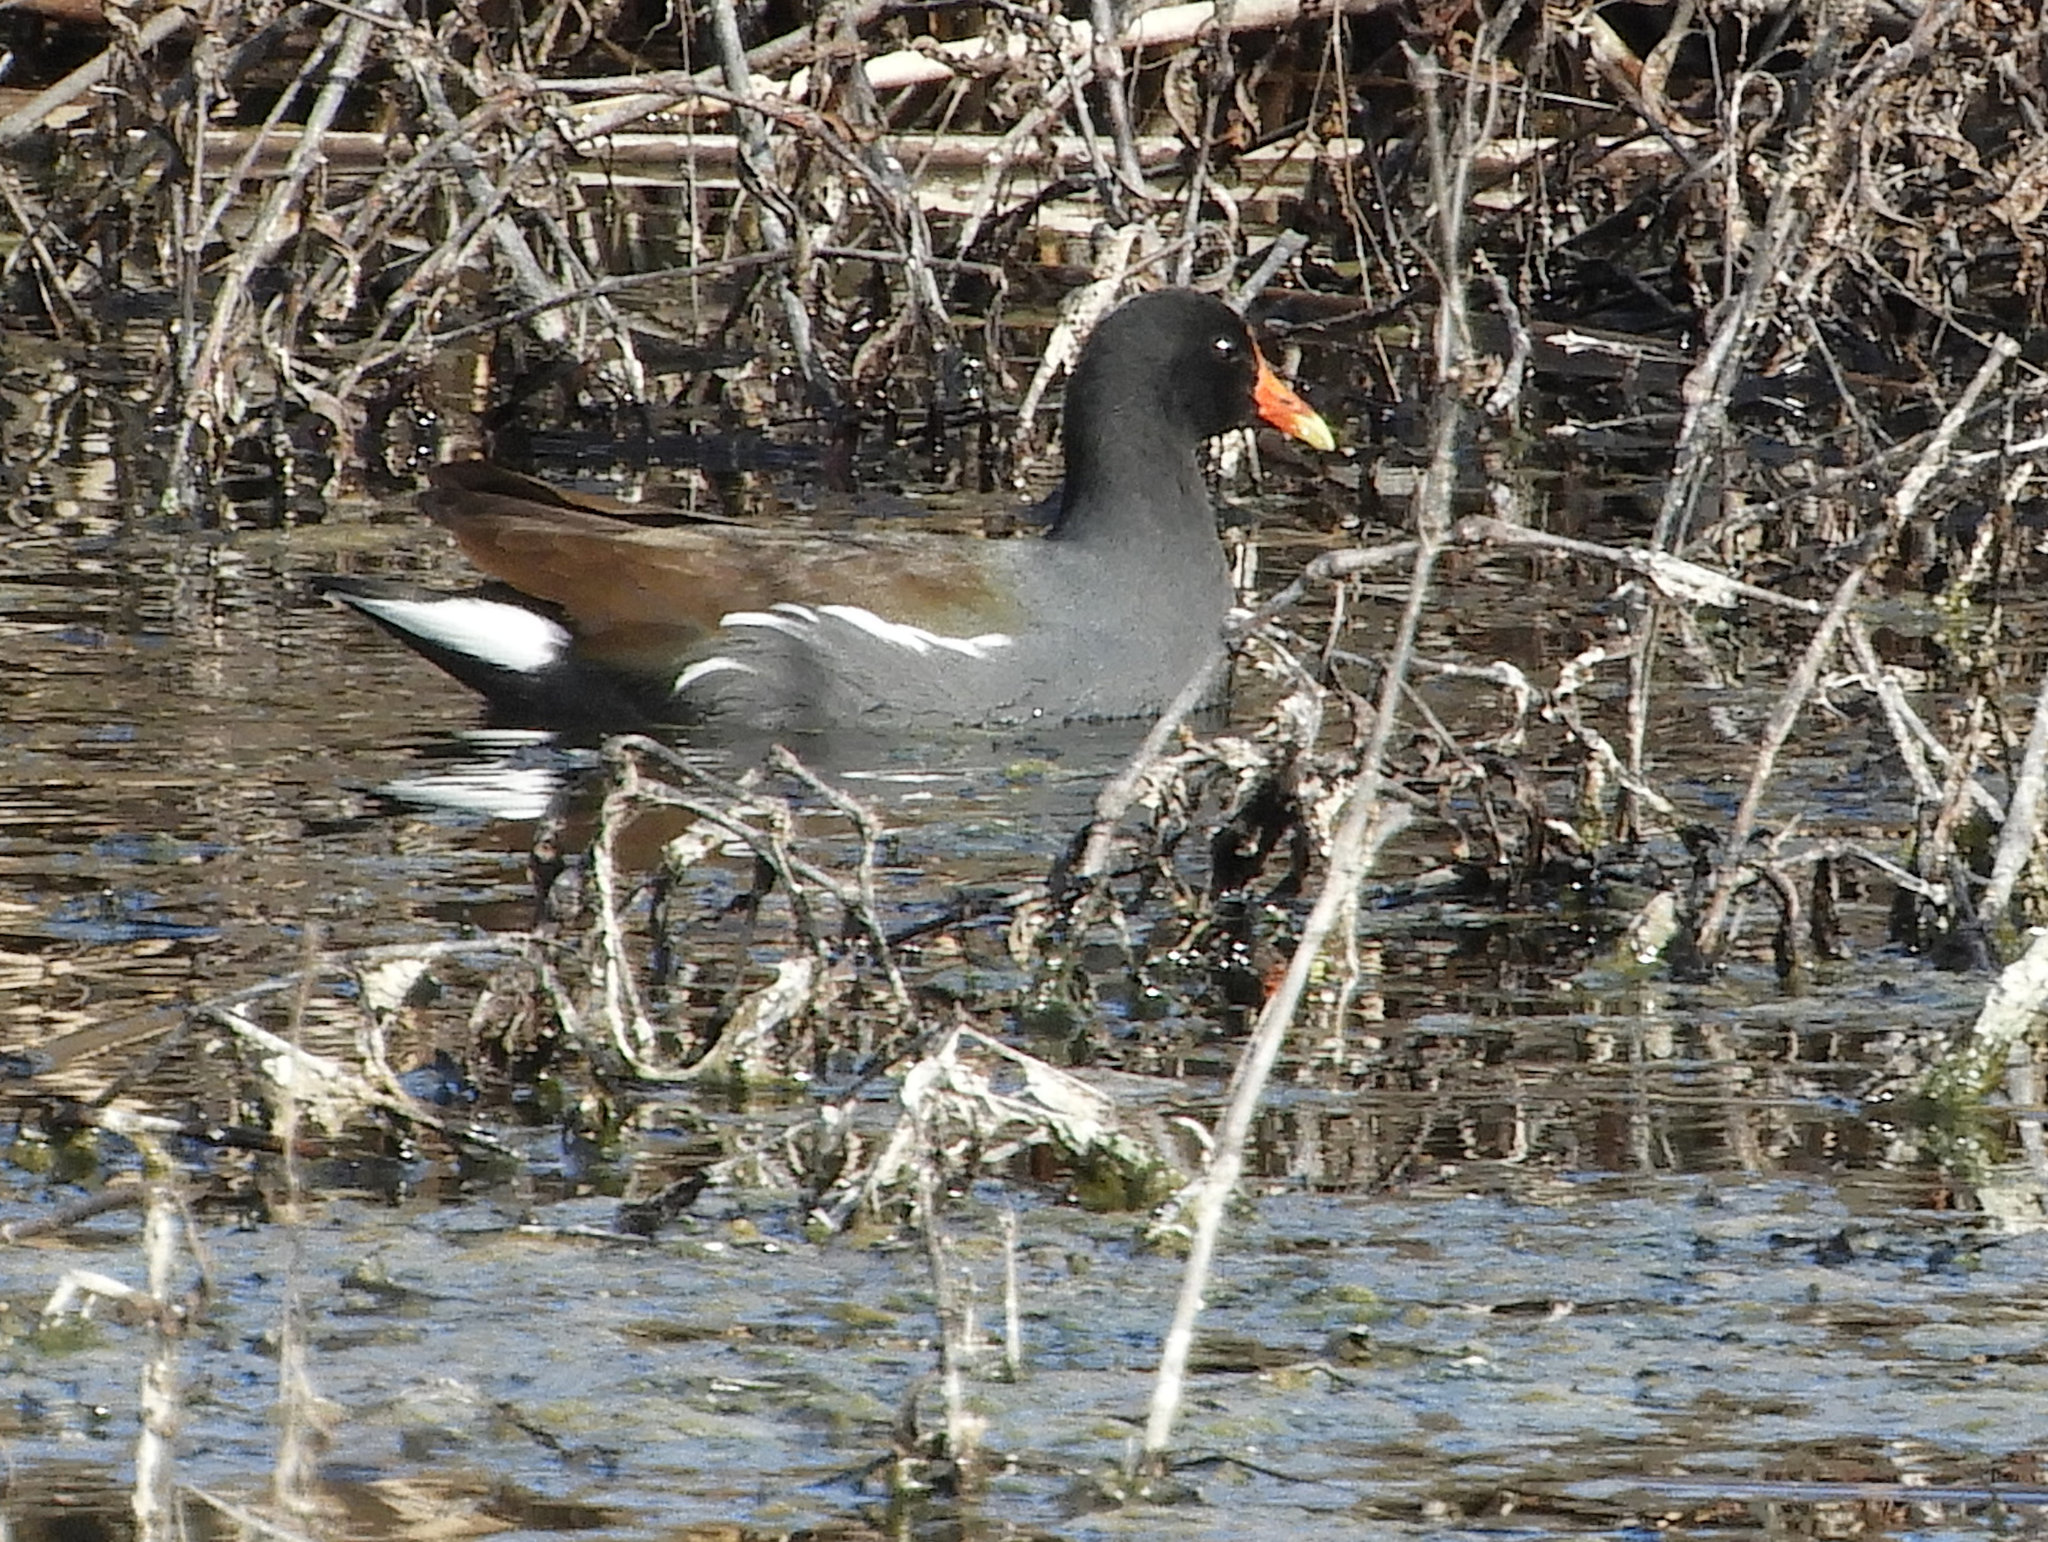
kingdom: Animalia
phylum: Chordata
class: Aves
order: Gruiformes
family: Rallidae
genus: Gallinula
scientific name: Gallinula chloropus
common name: Common moorhen
